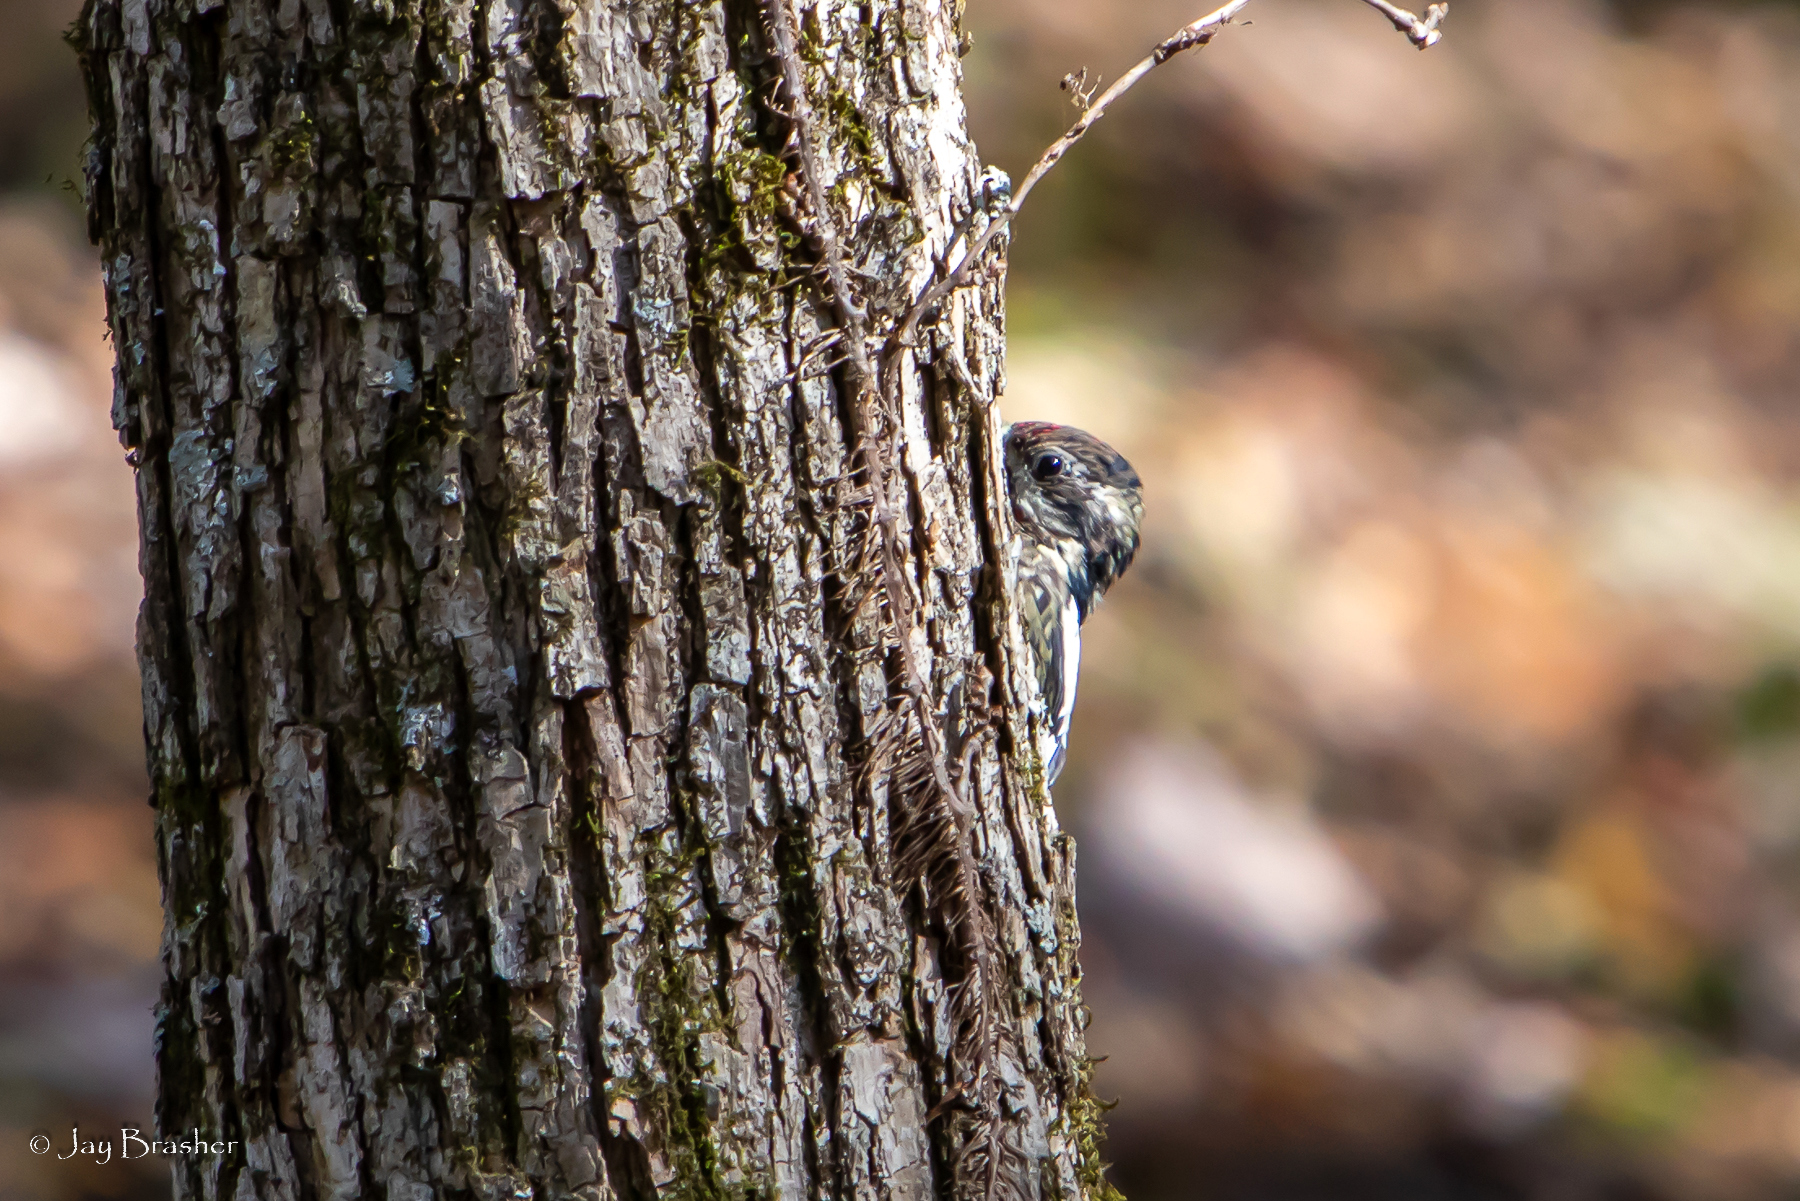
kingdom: Animalia
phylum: Chordata
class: Aves
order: Piciformes
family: Picidae
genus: Sphyrapicus
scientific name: Sphyrapicus varius
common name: Yellow-bellied sapsucker
